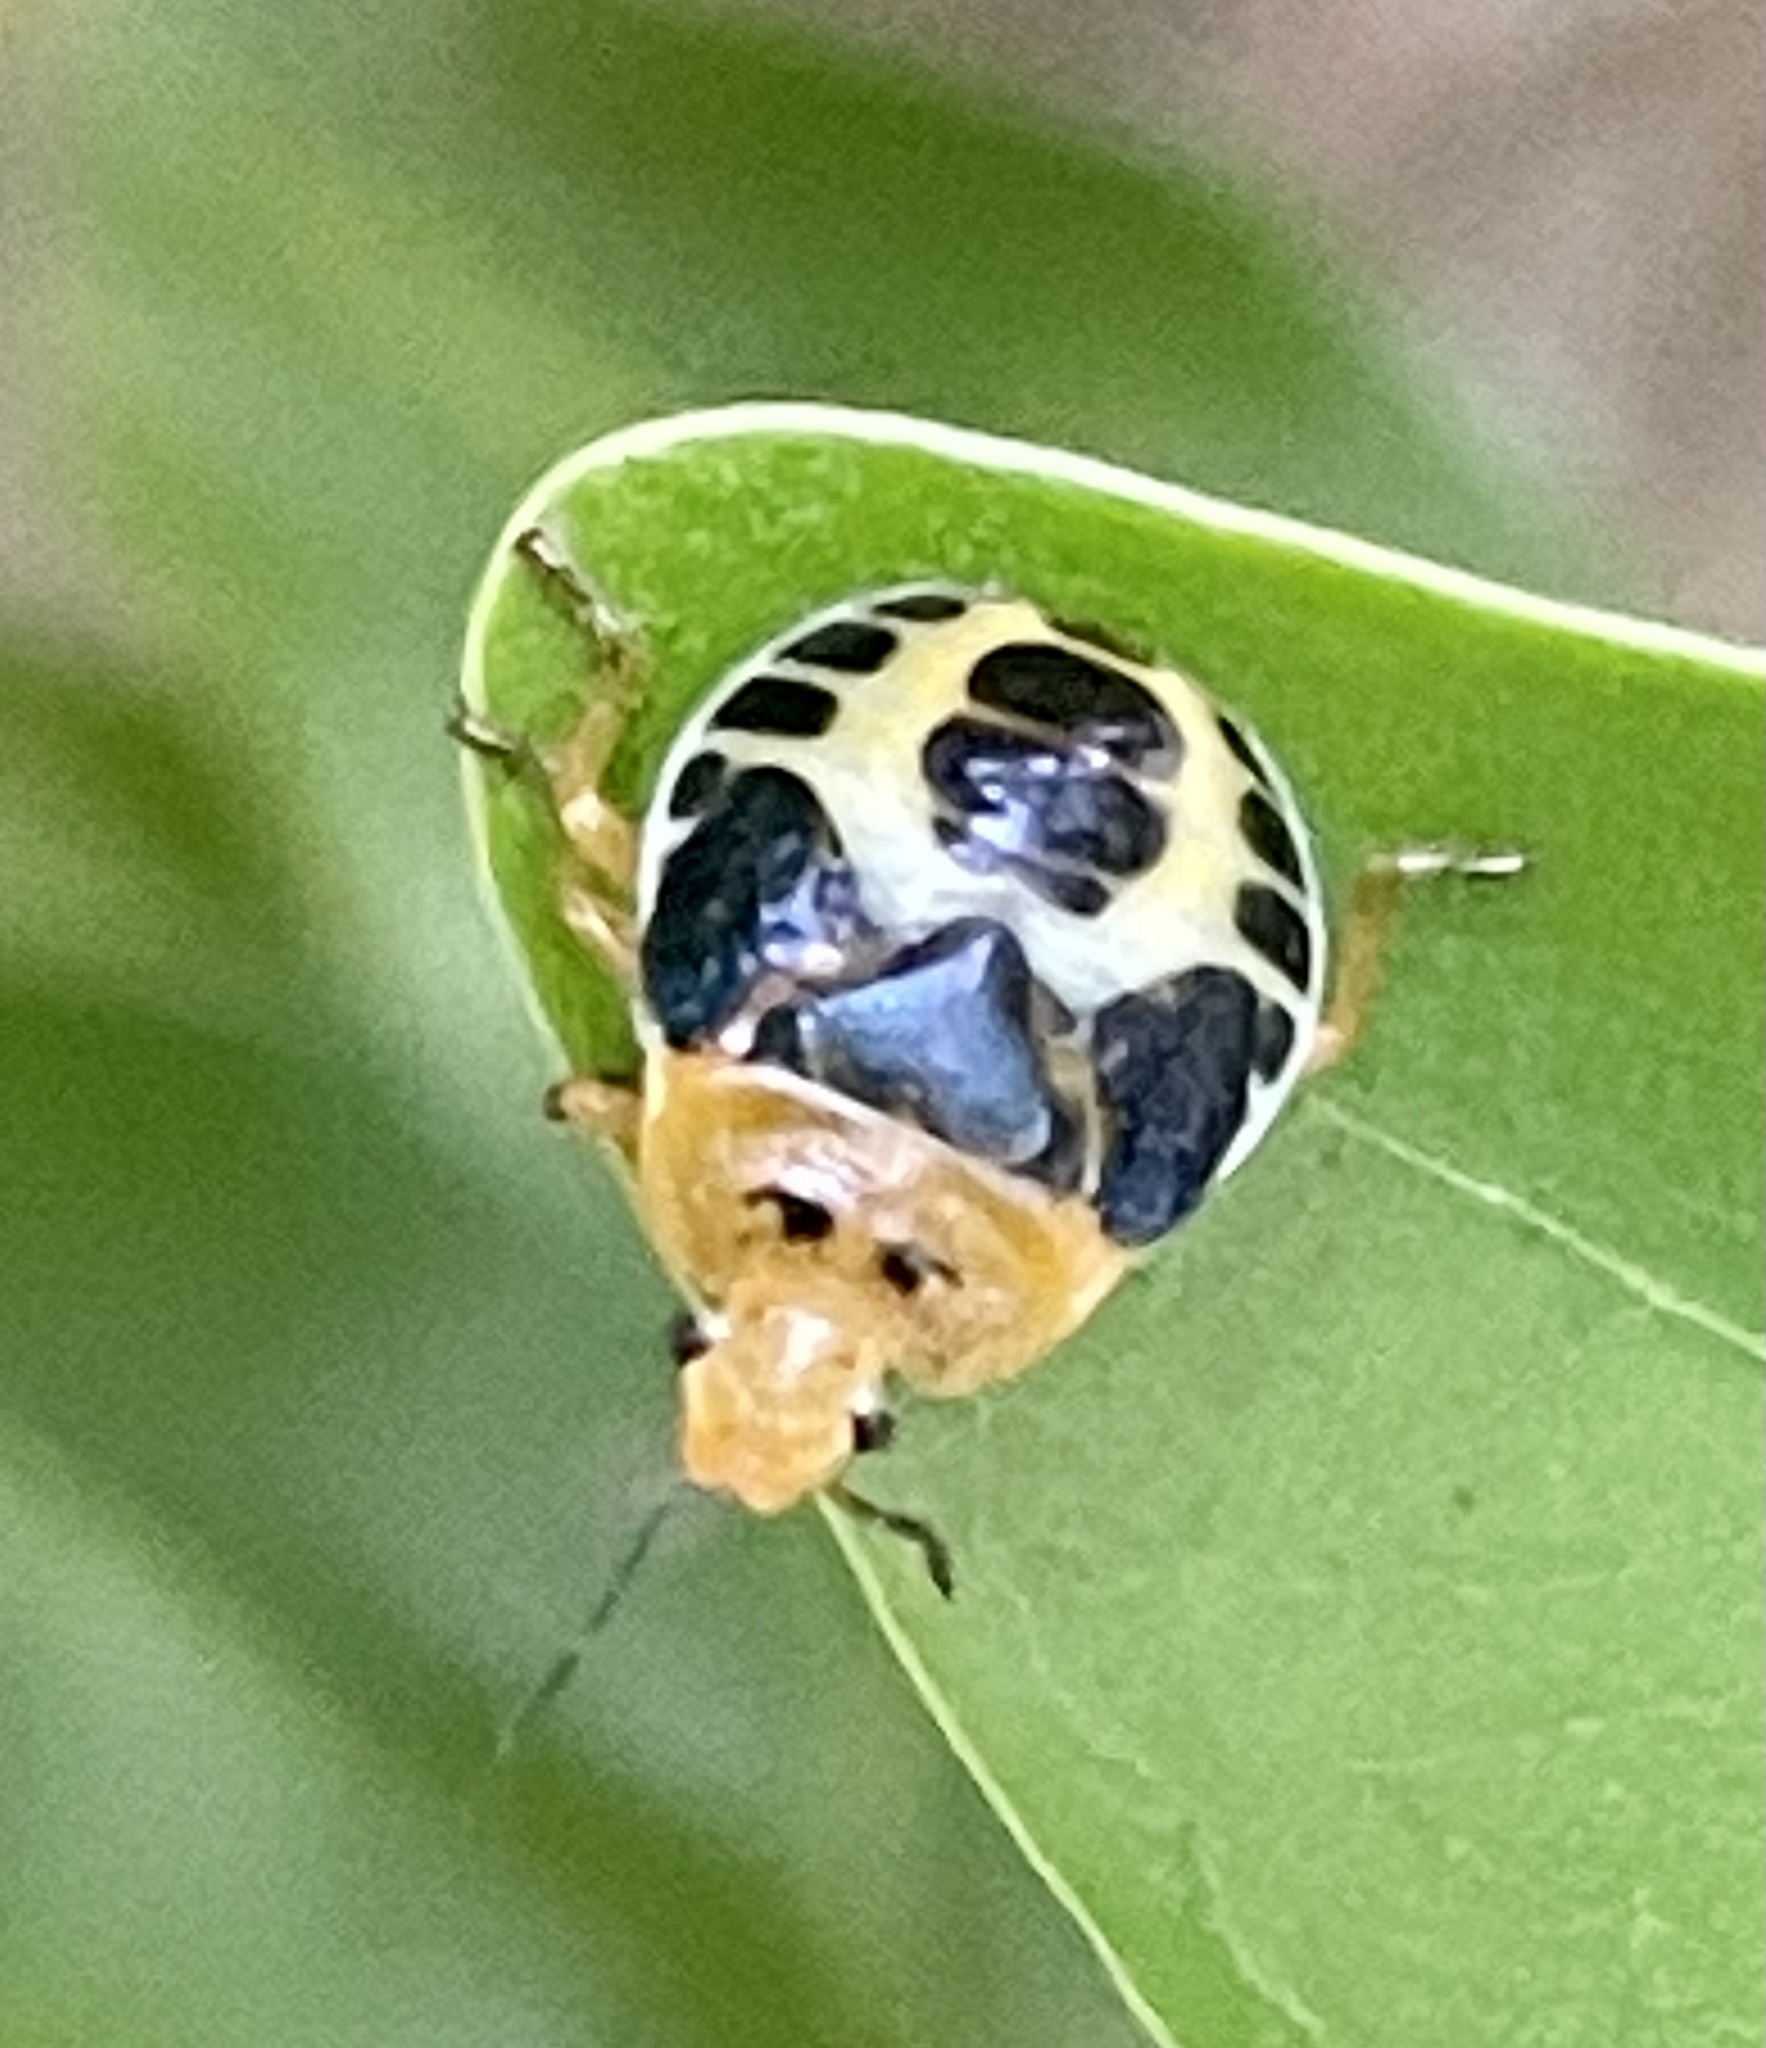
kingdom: Animalia
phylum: Arthropoda
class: Insecta
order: Hemiptera
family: Pentatomidae
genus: Amyotea
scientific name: Amyotea
